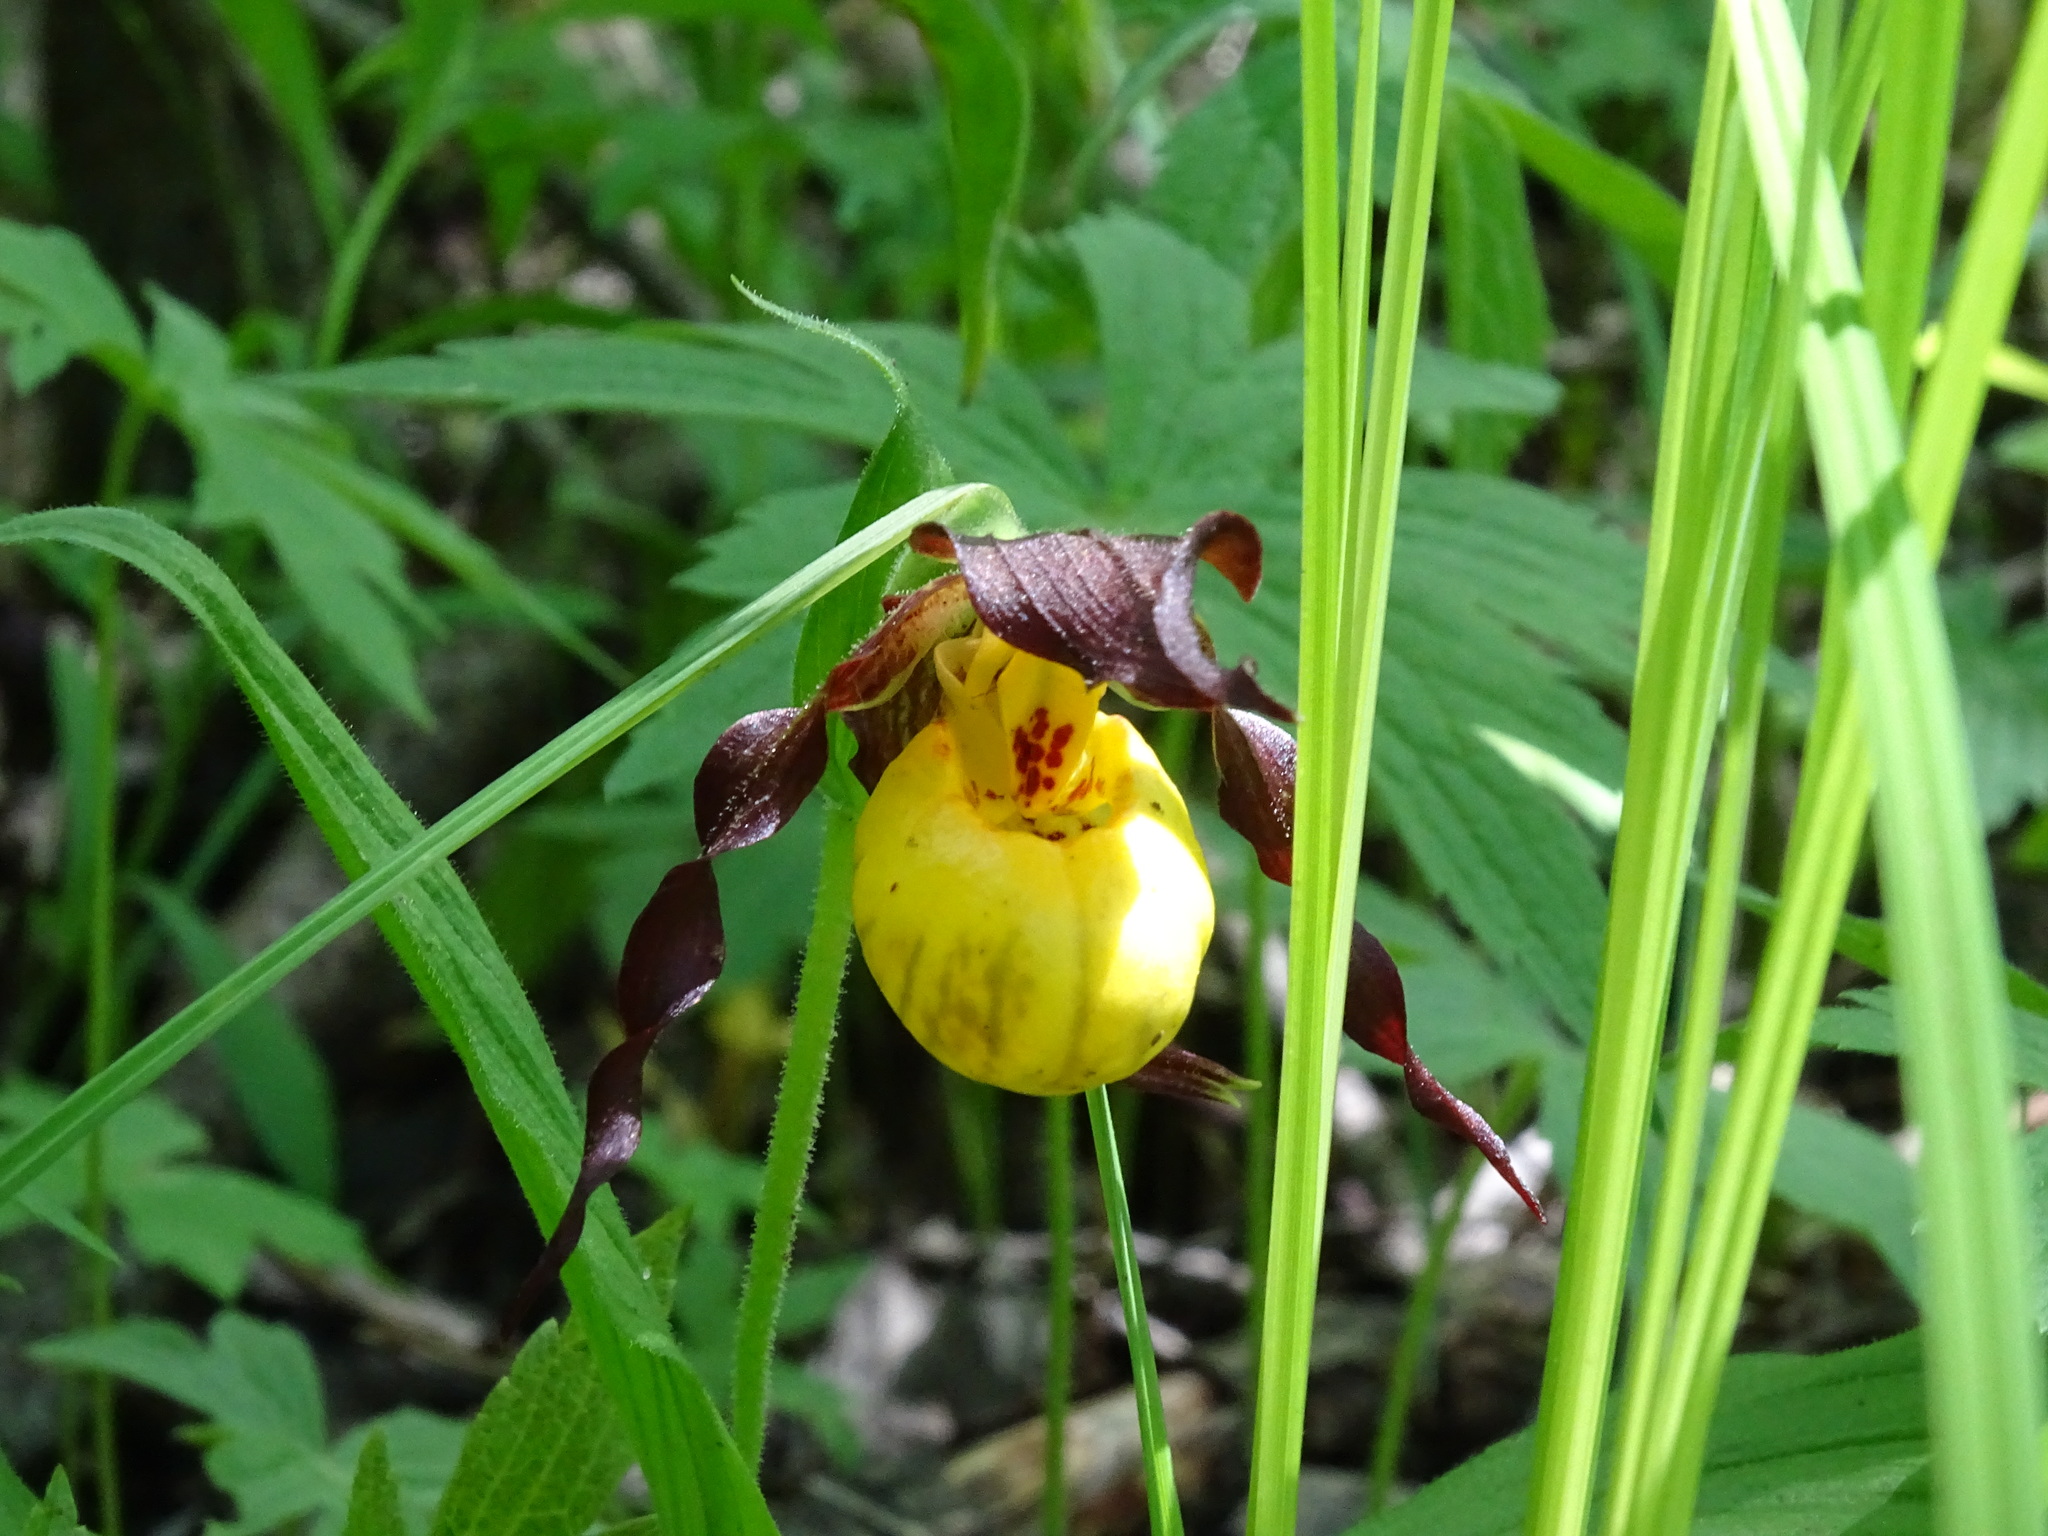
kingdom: Plantae
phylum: Tracheophyta
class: Liliopsida
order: Asparagales
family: Orchidaceae
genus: Cypripedium
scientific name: Cypripedium parviflorum
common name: American yellow lady's-slipper
